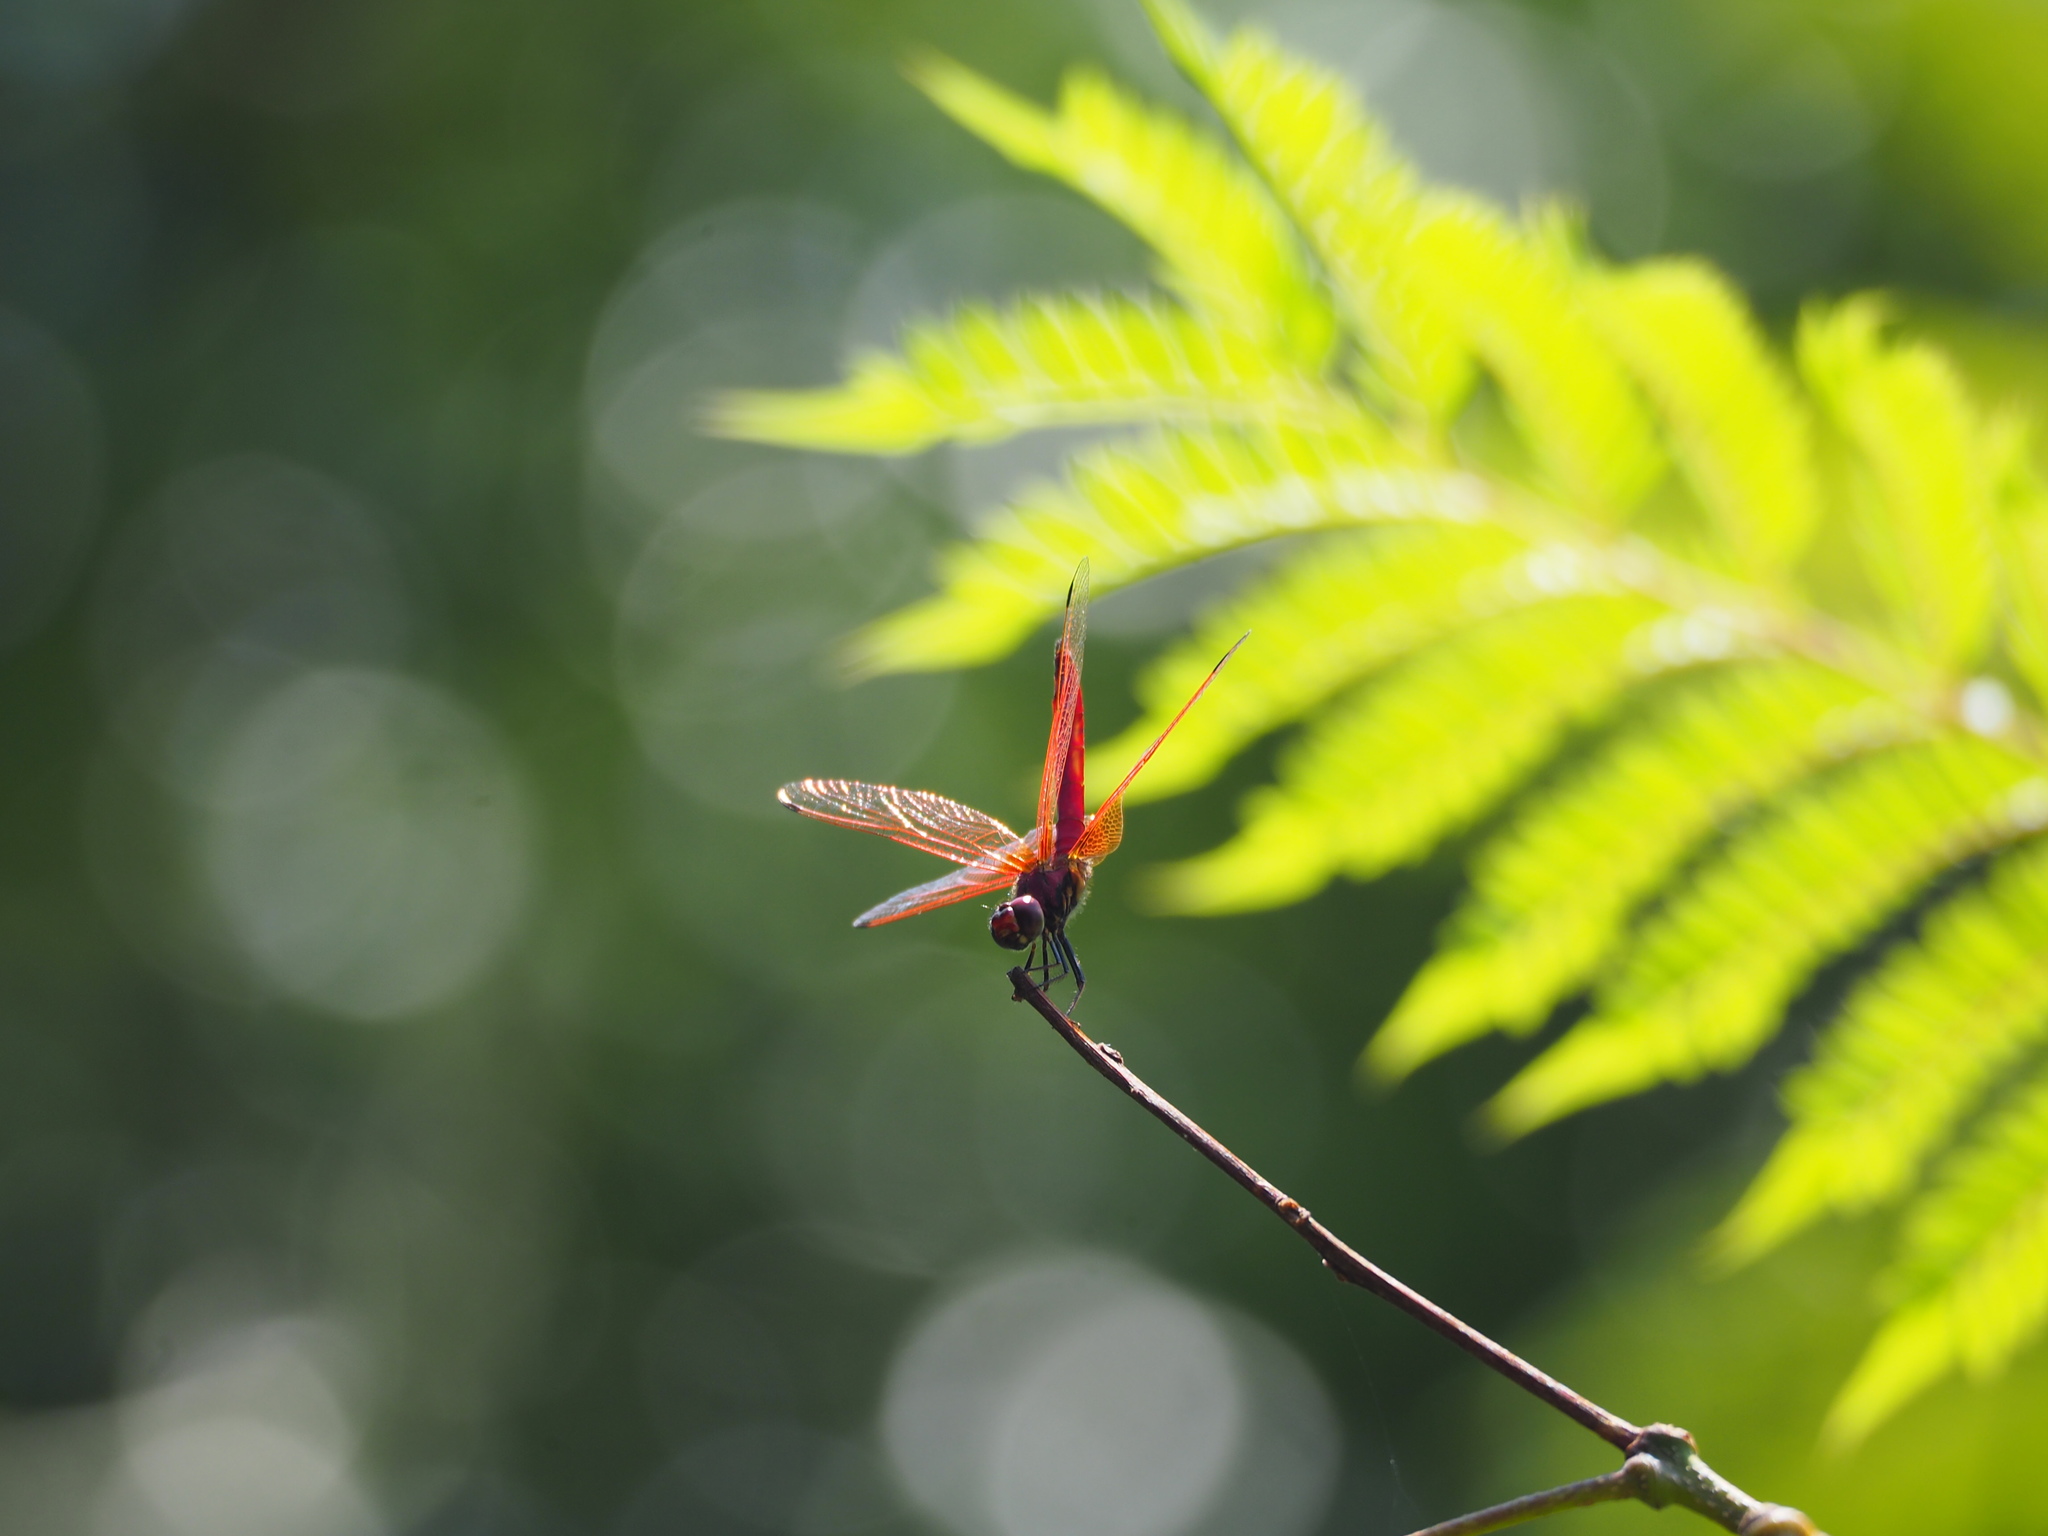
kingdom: Animalia
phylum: Arthropoda
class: Insecta
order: Odonata
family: Libellulidae
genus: Trithemis
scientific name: Trithemis aurora
